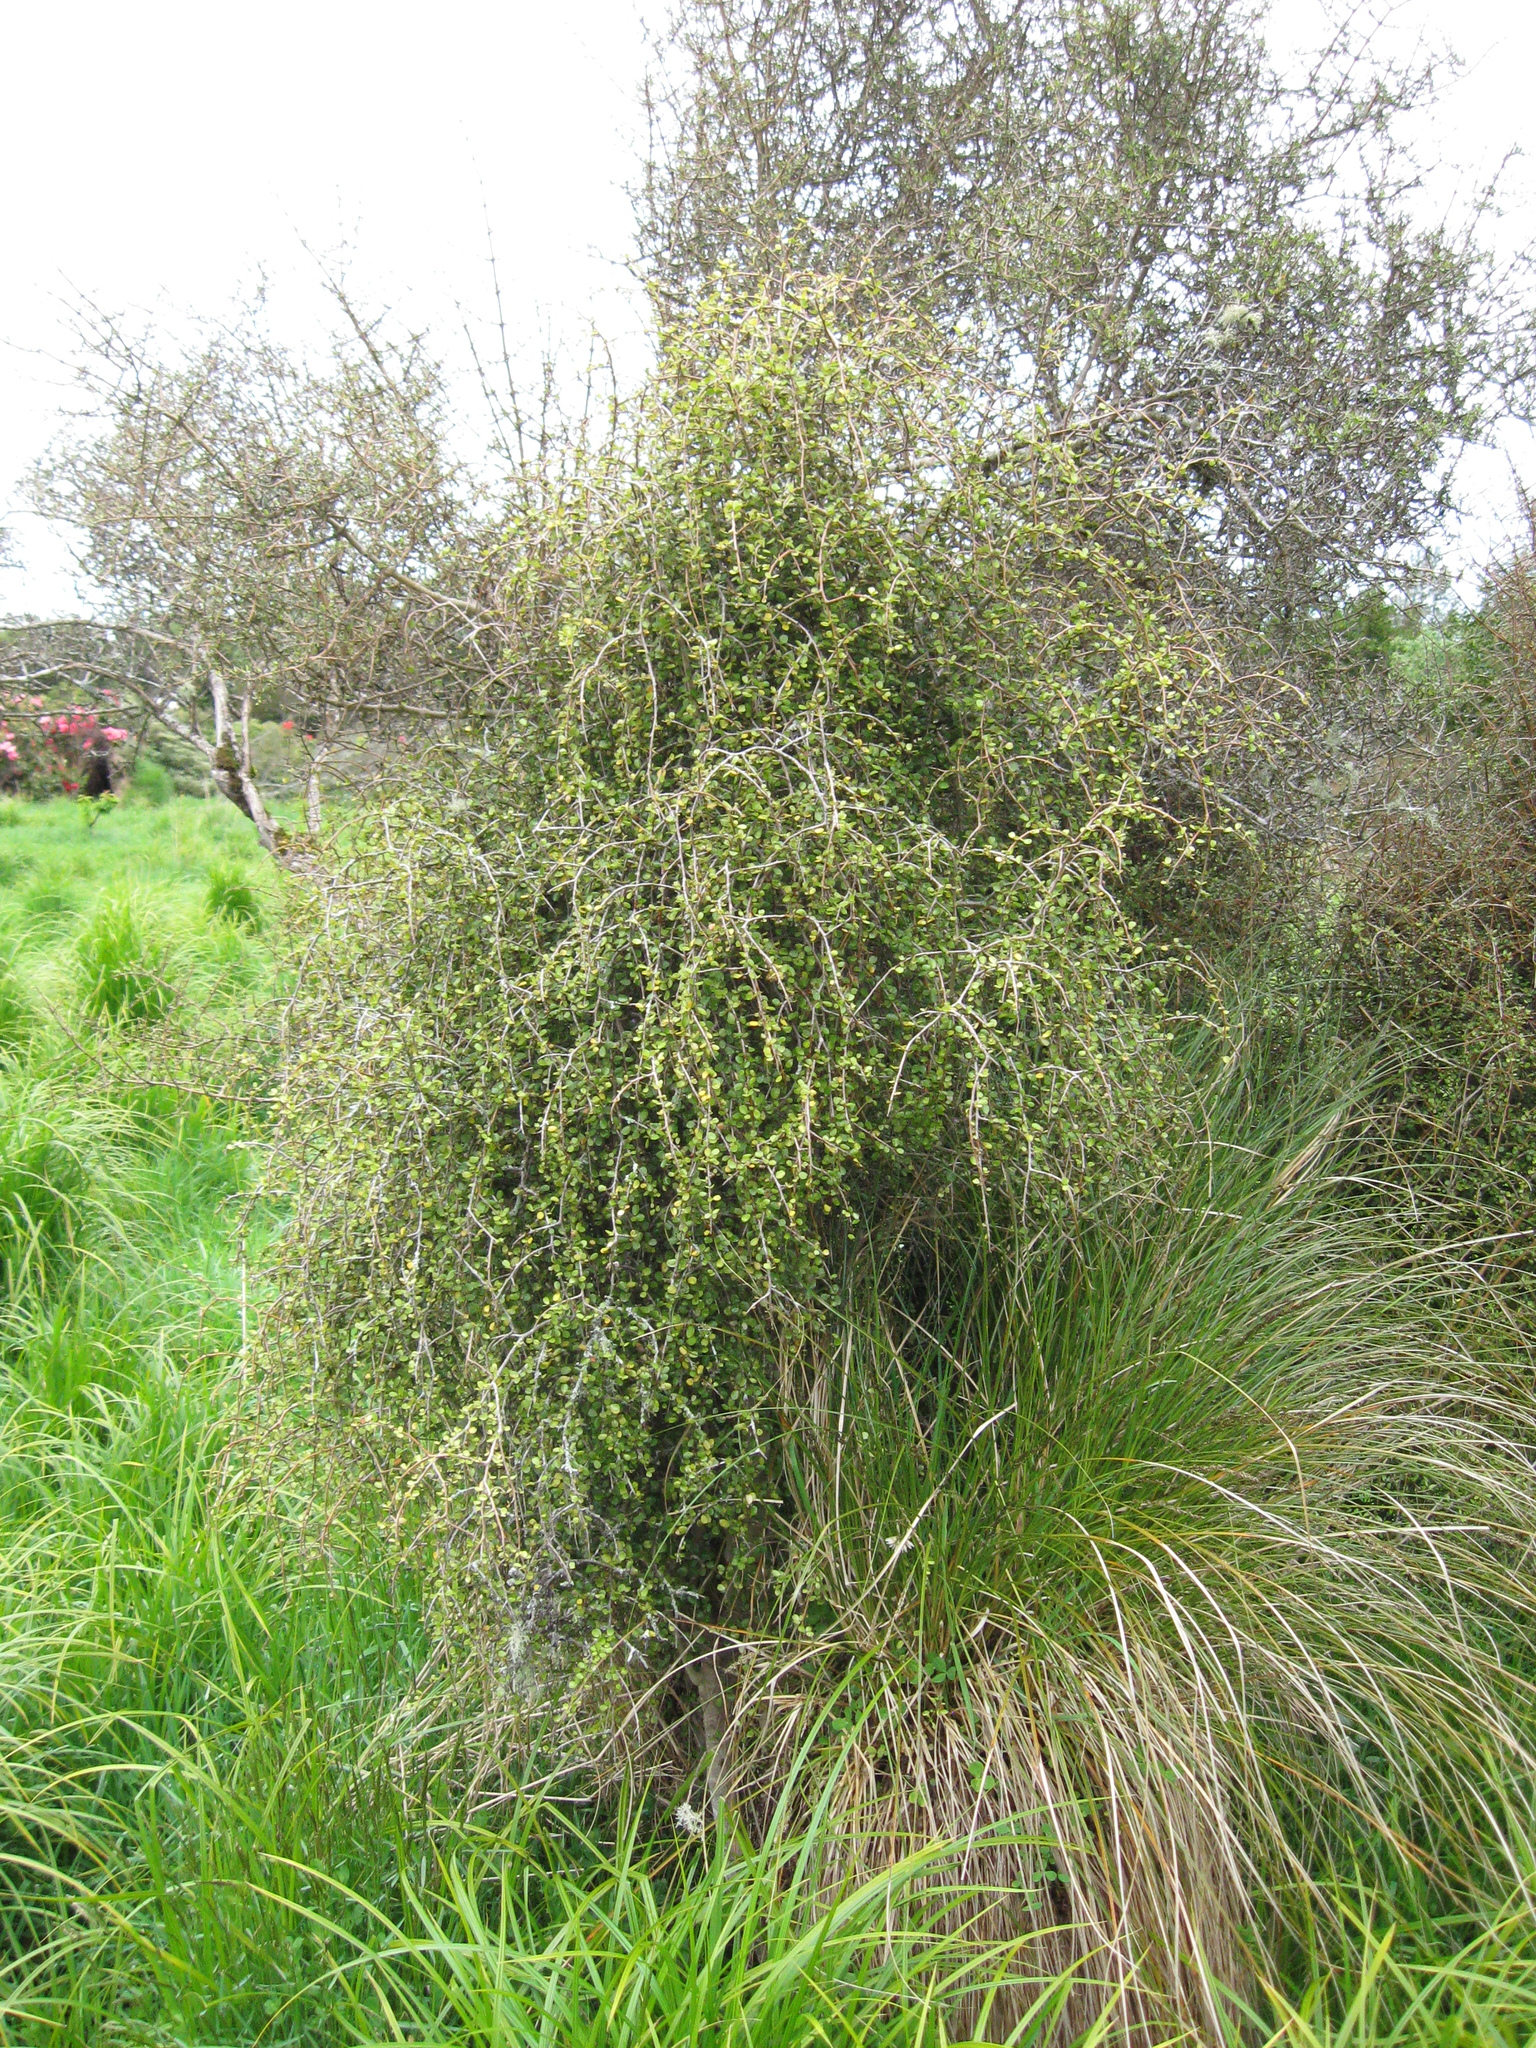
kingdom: Plantae
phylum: Tracheophyta
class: Magnoliopsida
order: Ericales
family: Primulaceae
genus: Myrsine
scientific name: Myrsine divaricata
